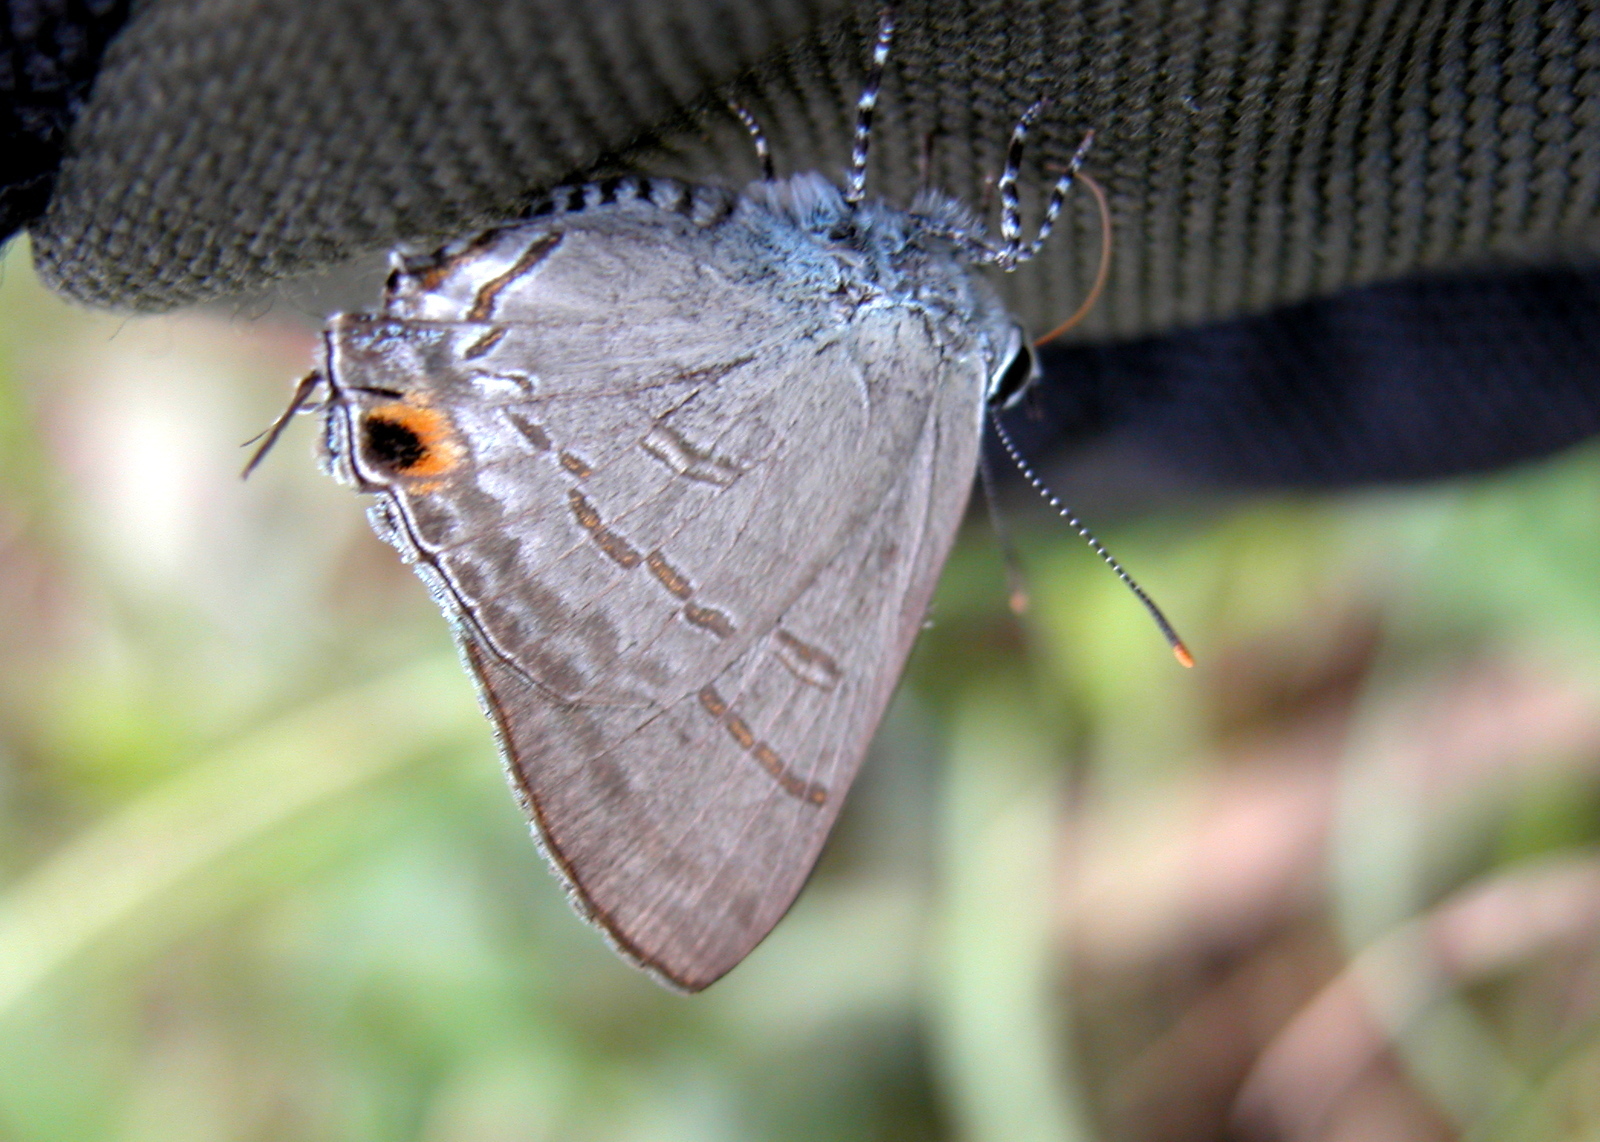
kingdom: Animalia
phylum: Arthropoda
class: Insecta
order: Lepidoptera
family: Lycaenidae
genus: Hypolycaena
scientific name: Hypolycaena erylus
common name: Common tit
